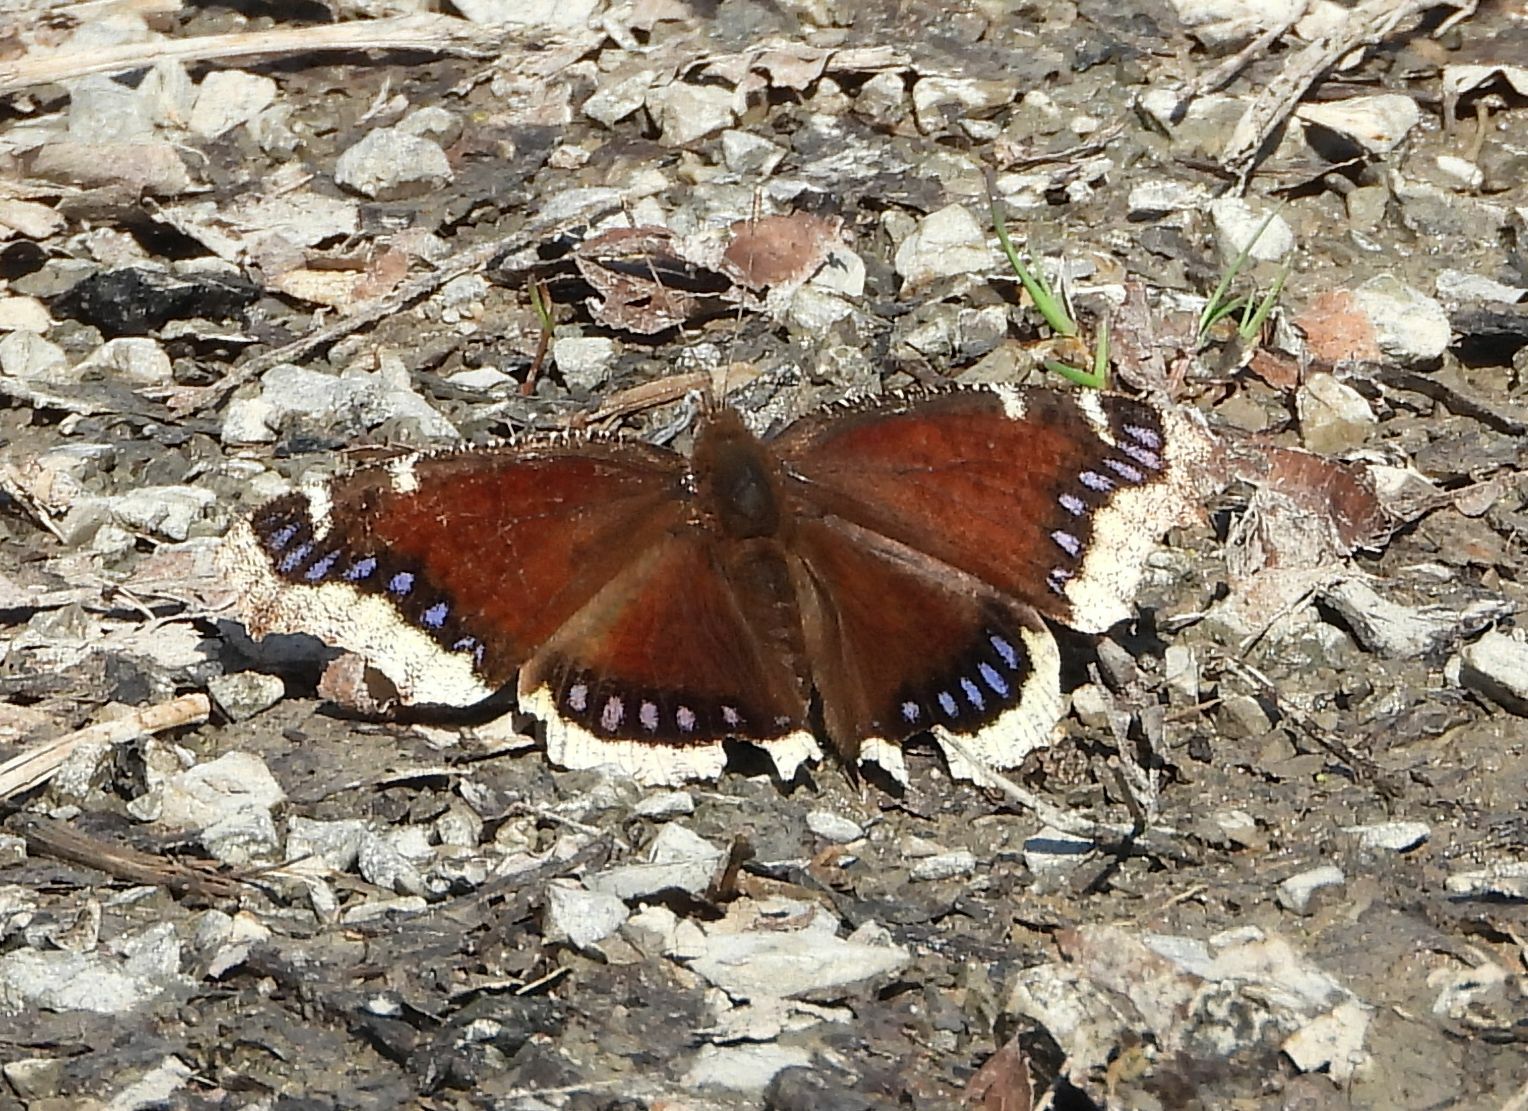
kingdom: Animalia
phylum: Arthropoda
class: Insecta
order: Lepidoptera
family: Nymphalidae
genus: Nymphalis
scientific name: Nymphalis antiopa
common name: Camberwell beauty
